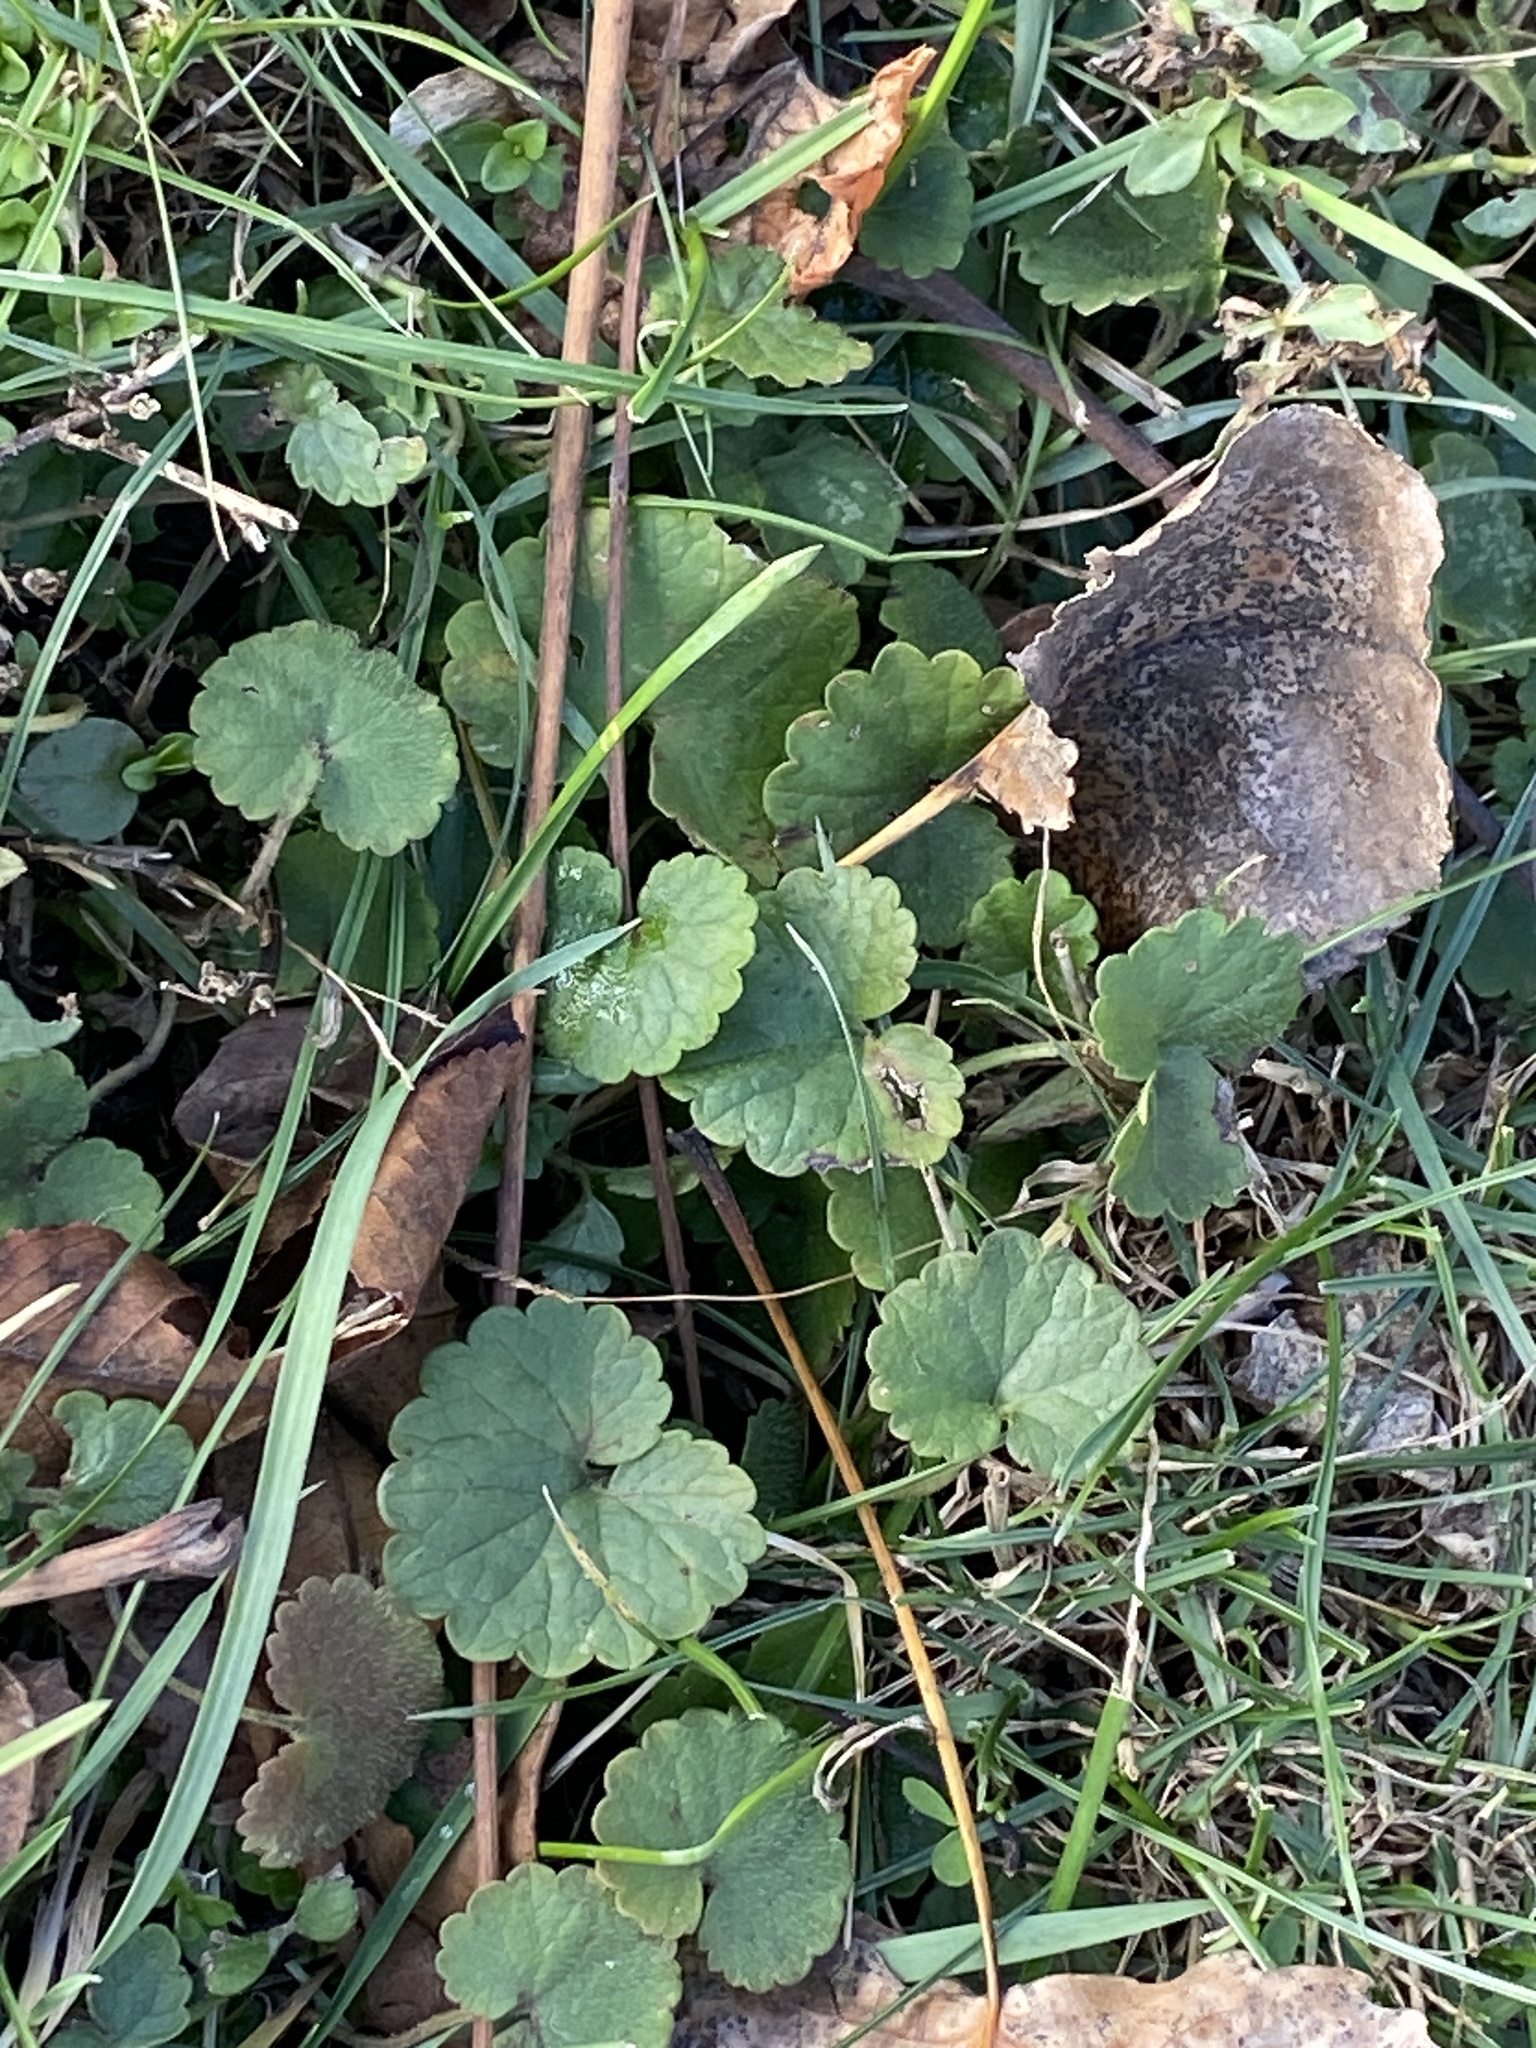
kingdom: Plantae
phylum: Tracheophyta
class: Magnoliopsida
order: Lamiales
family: Lamiaceae
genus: Glechoma
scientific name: Glechoma hederacea
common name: Ground ivy
